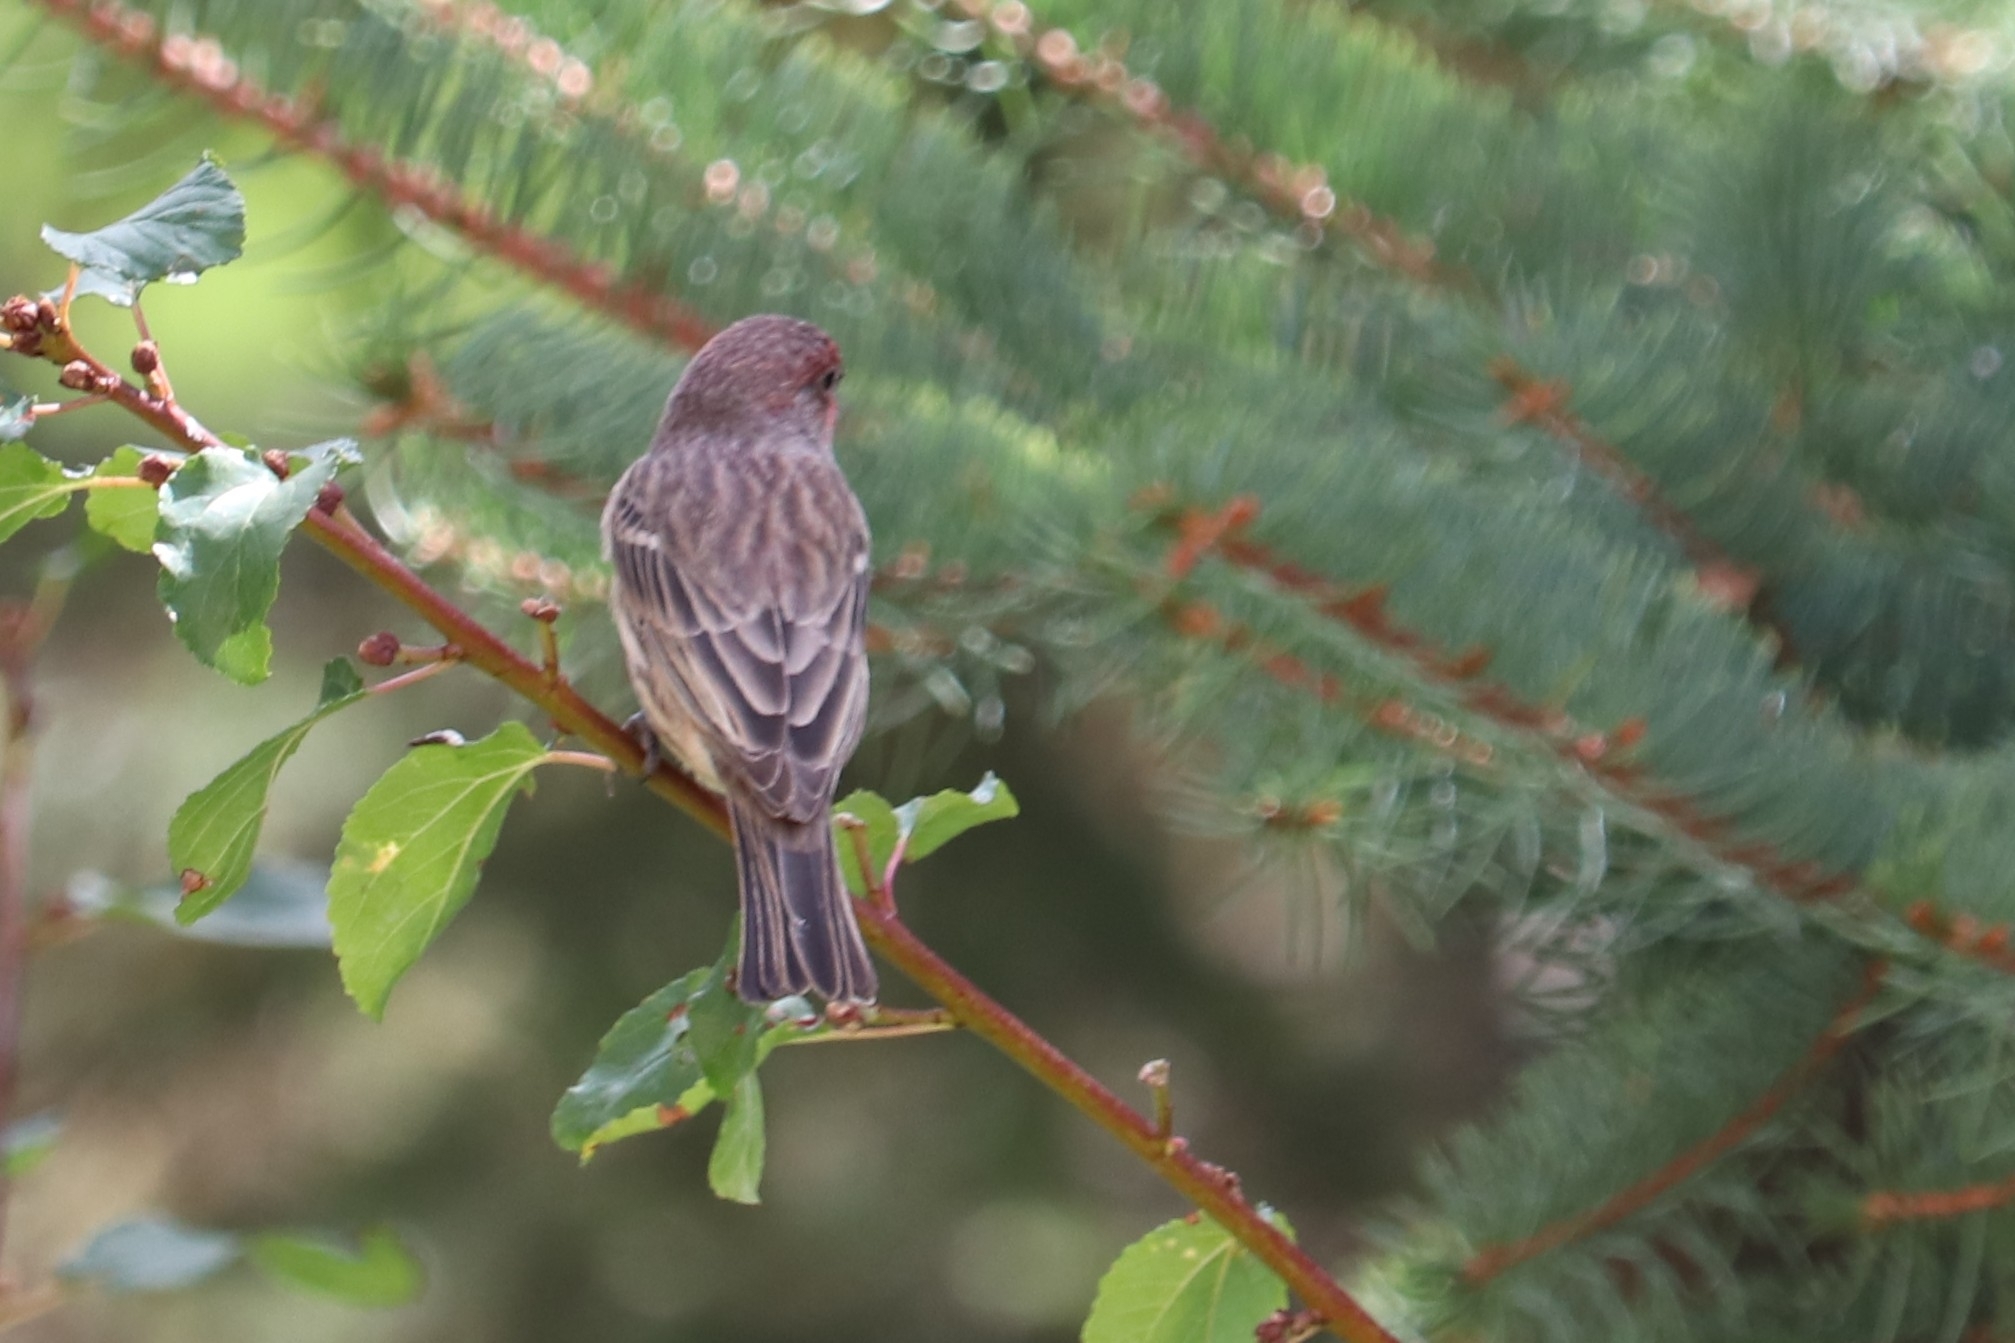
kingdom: Animalia
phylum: Chordata
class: Aves
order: Passeriformes
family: Fringillidae
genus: Haemorhous
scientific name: Haemorhous mexicanus
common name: House finch
